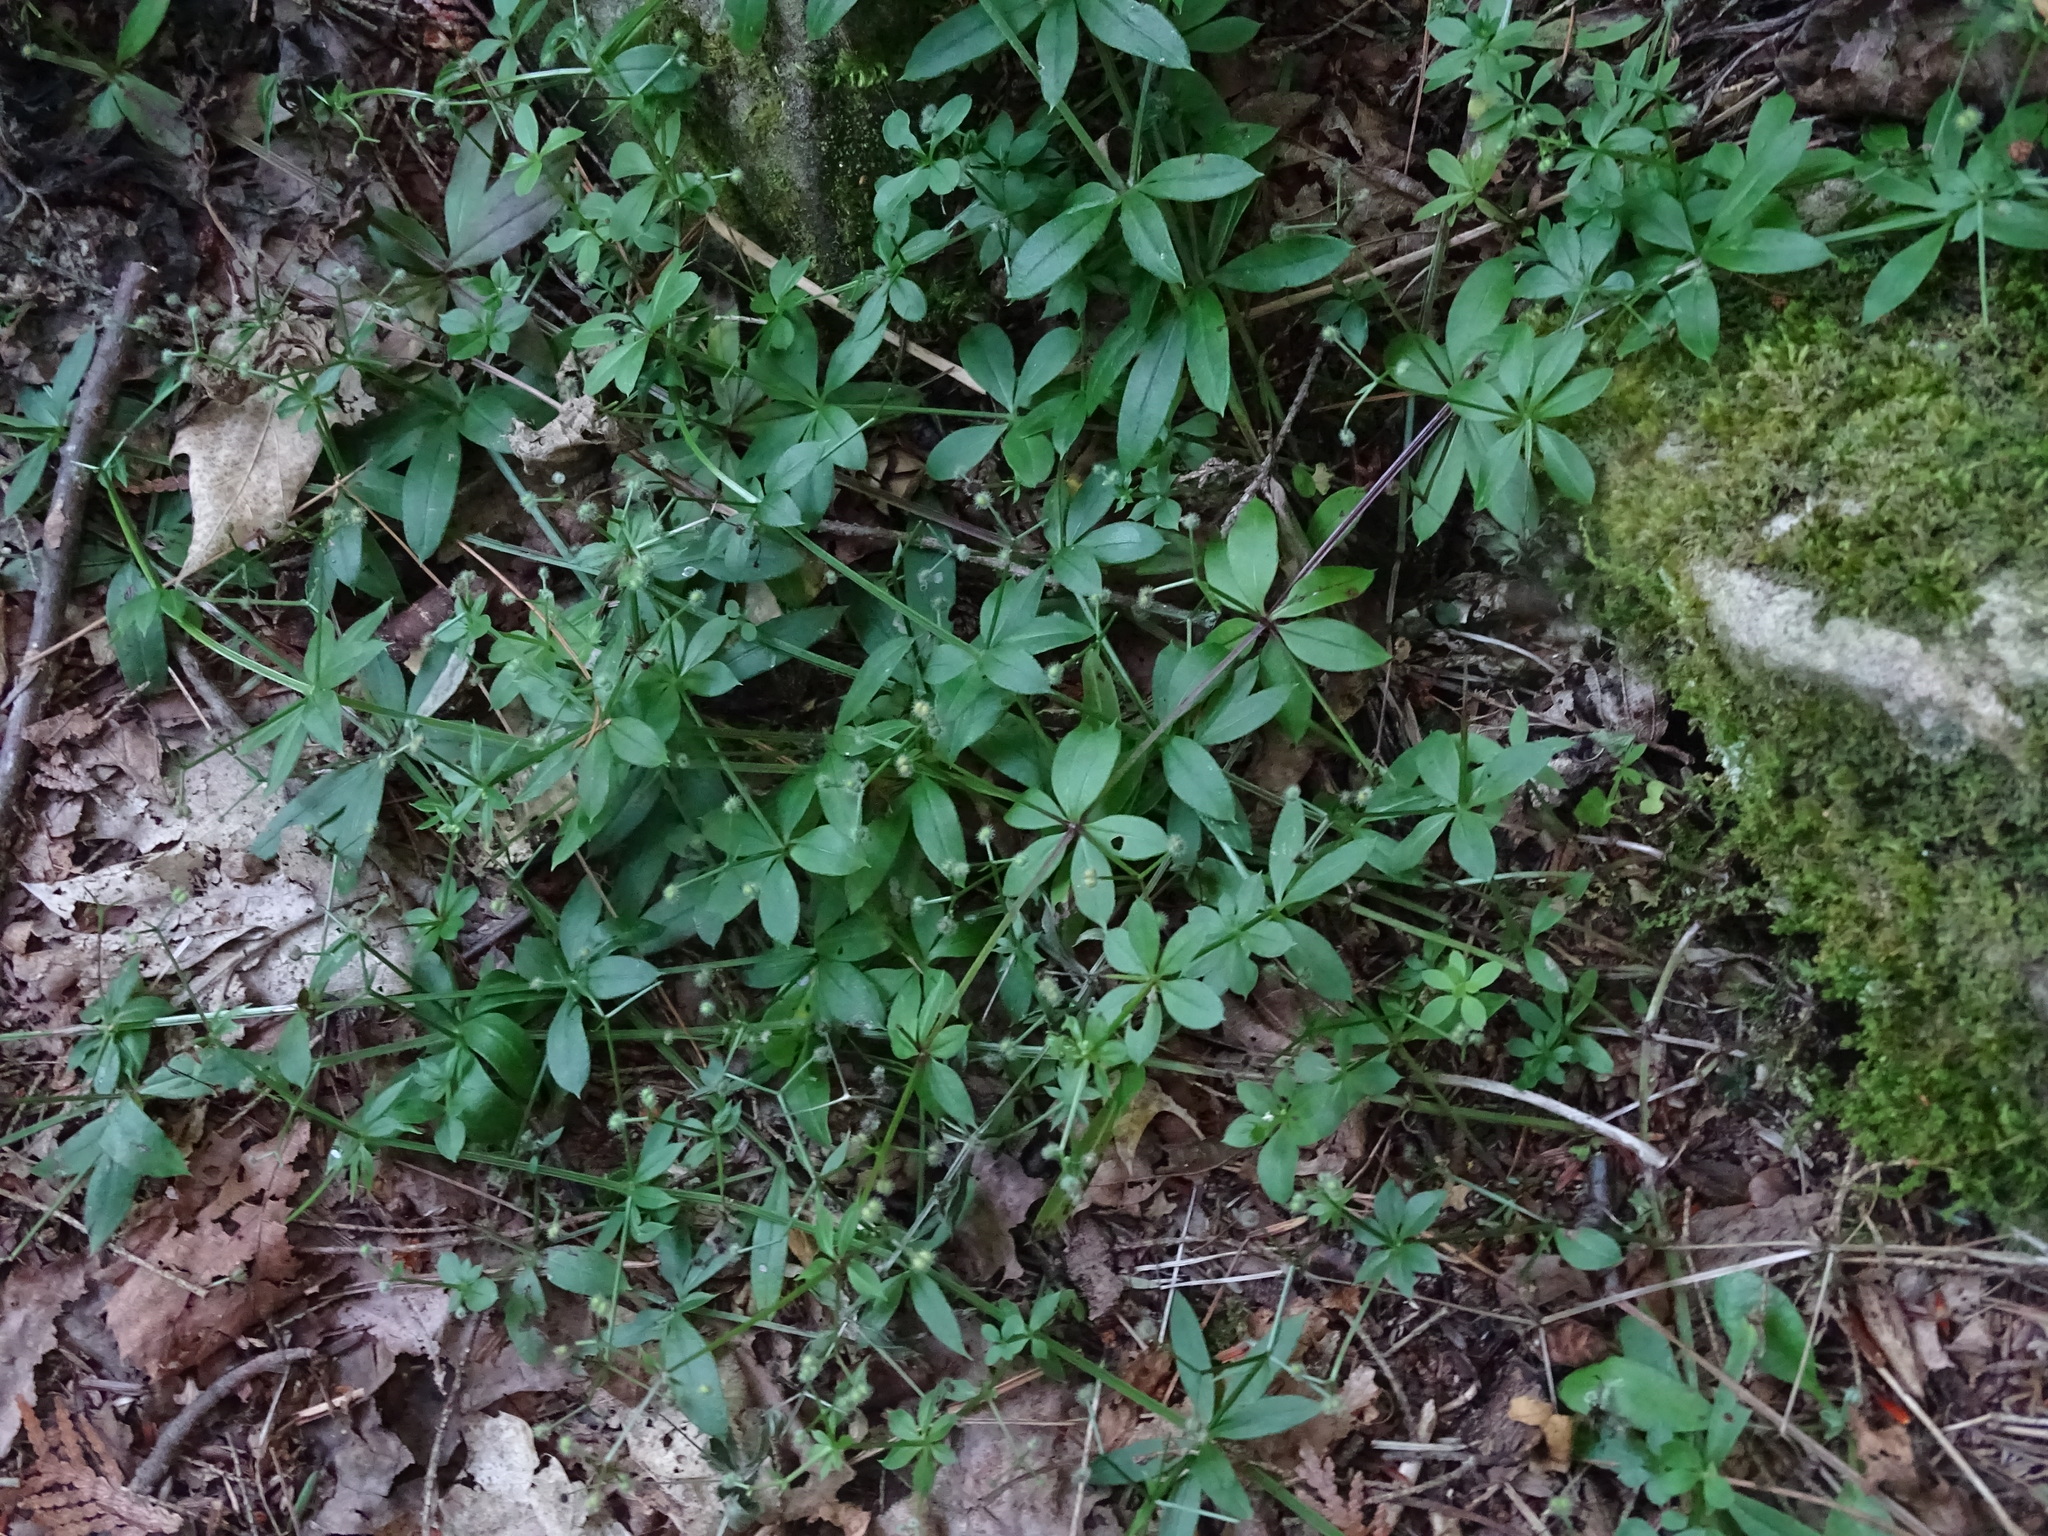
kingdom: Plantae
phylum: Tracheophyta
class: Magnoliopsida
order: Gentianales
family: Rubiaceae
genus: Galium
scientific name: Galium triflorum
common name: Fragrant bedstraw
